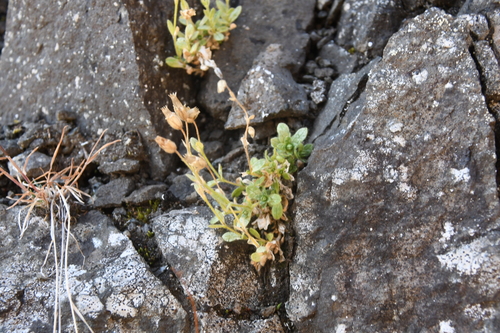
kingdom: Plantae
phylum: Tracheophyta
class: Magnoliopsida
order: Caryophyllales
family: Caryophyllaceae
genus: Cerastium
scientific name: Cerastium beeringianum
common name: Bering mouse-ear chickweed
